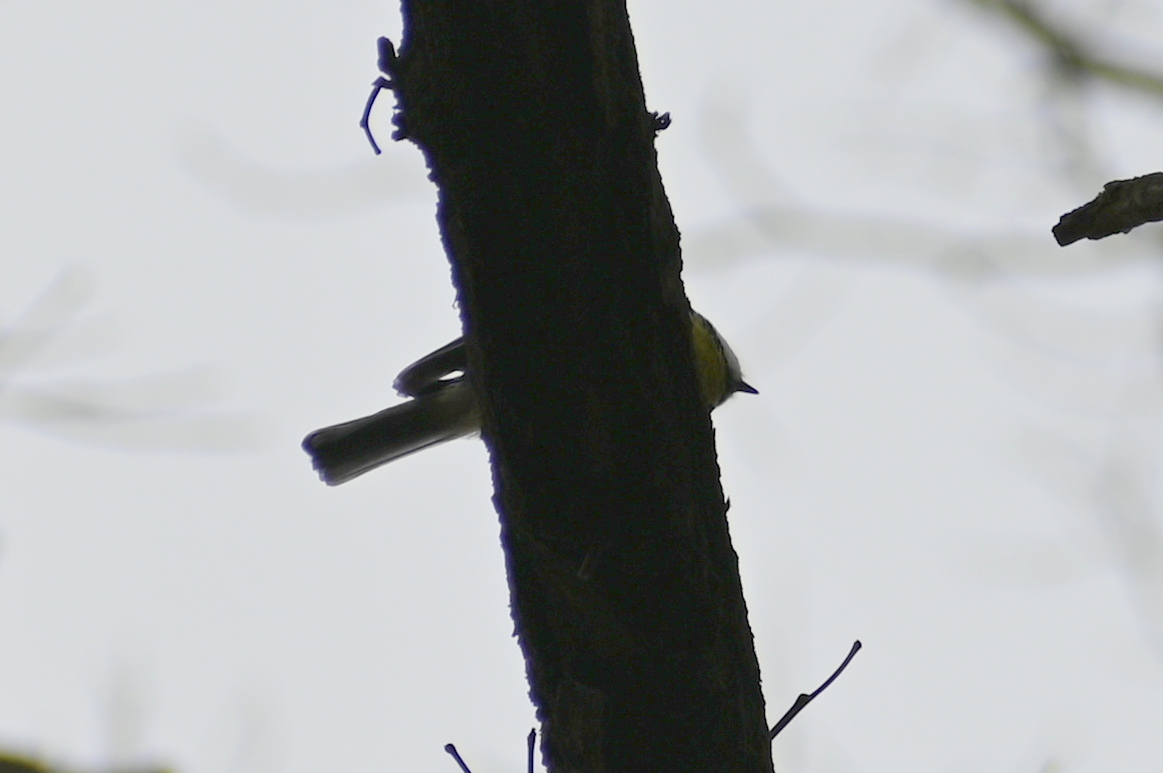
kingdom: Animalia
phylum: Chordata
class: Aves
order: Passeriformes
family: Paridae
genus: Cyanistes
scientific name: Cyanistes caeruleus
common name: Eurasian blue tit
